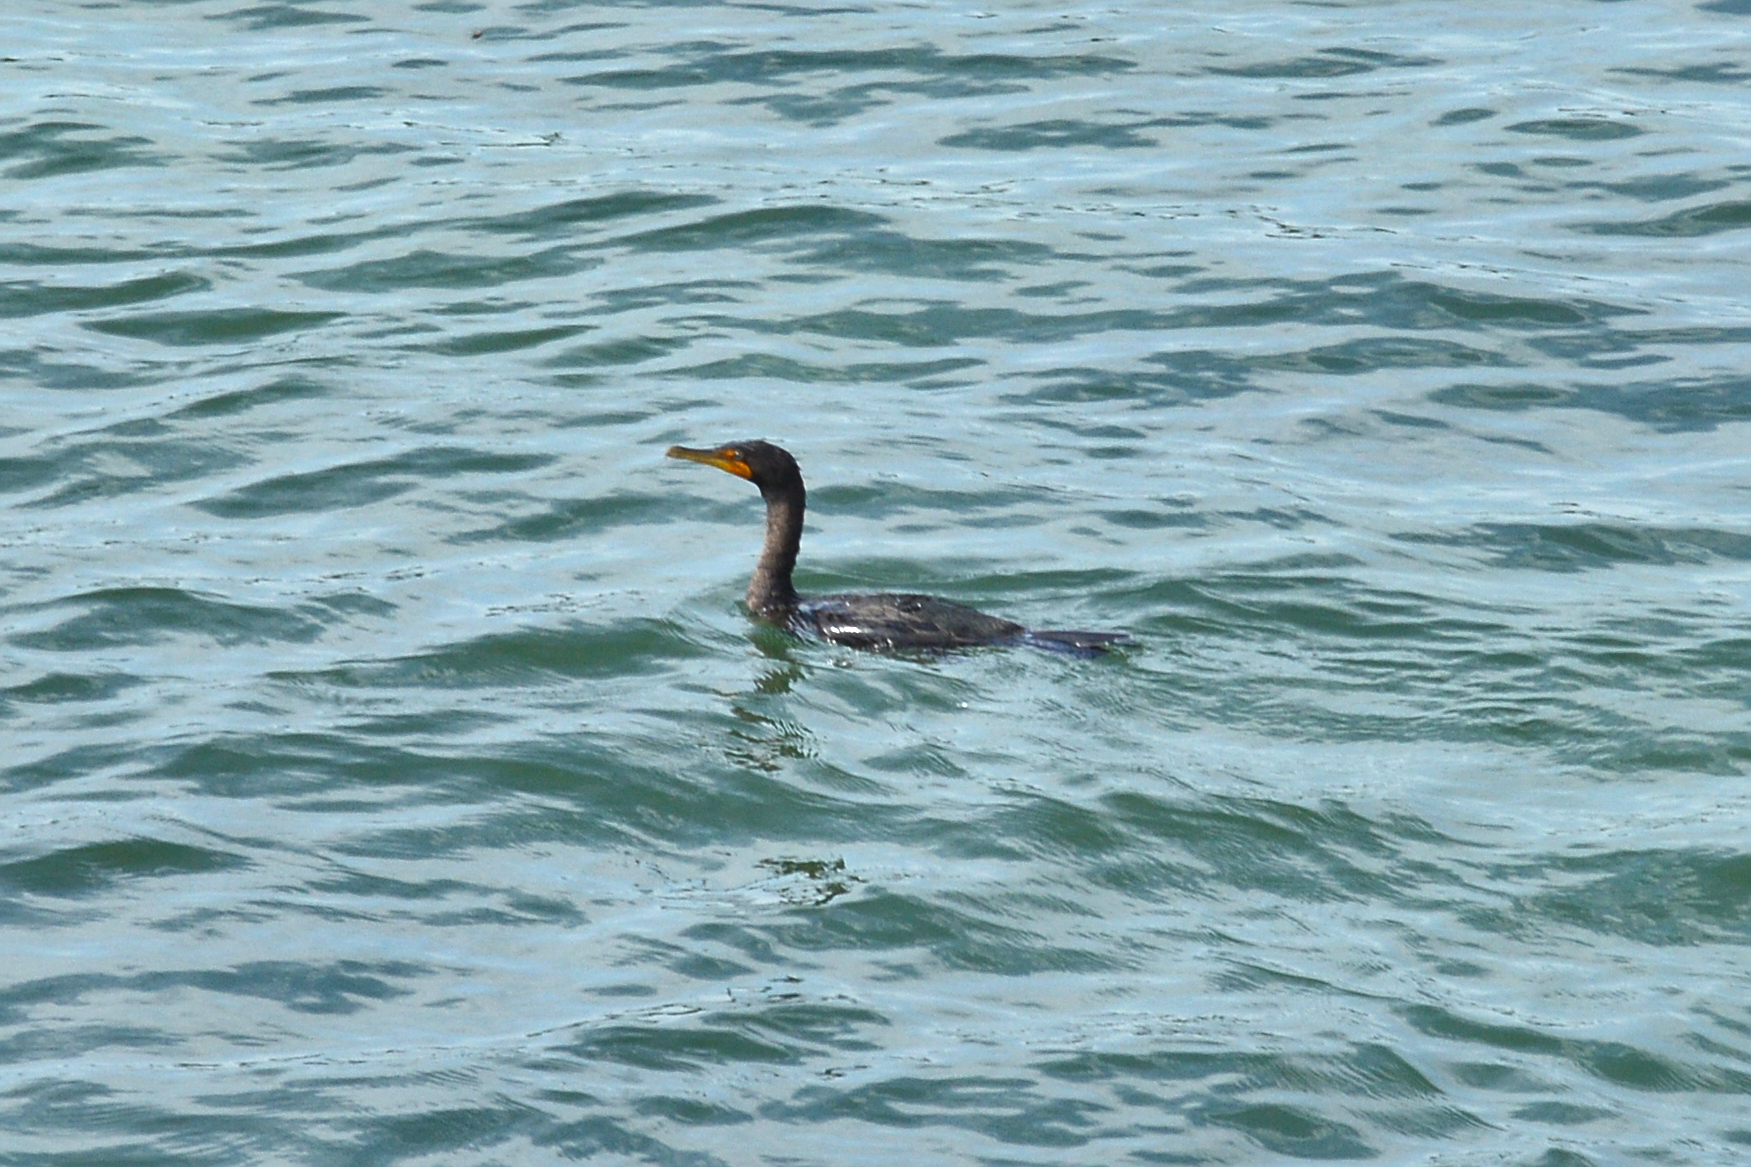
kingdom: Animalia
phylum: Chordata
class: Aves
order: Suliformes
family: Phalacrocoracidae
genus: Phalacrocorax
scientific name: Phalacrocorax auritus
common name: Double-crested cormorant
